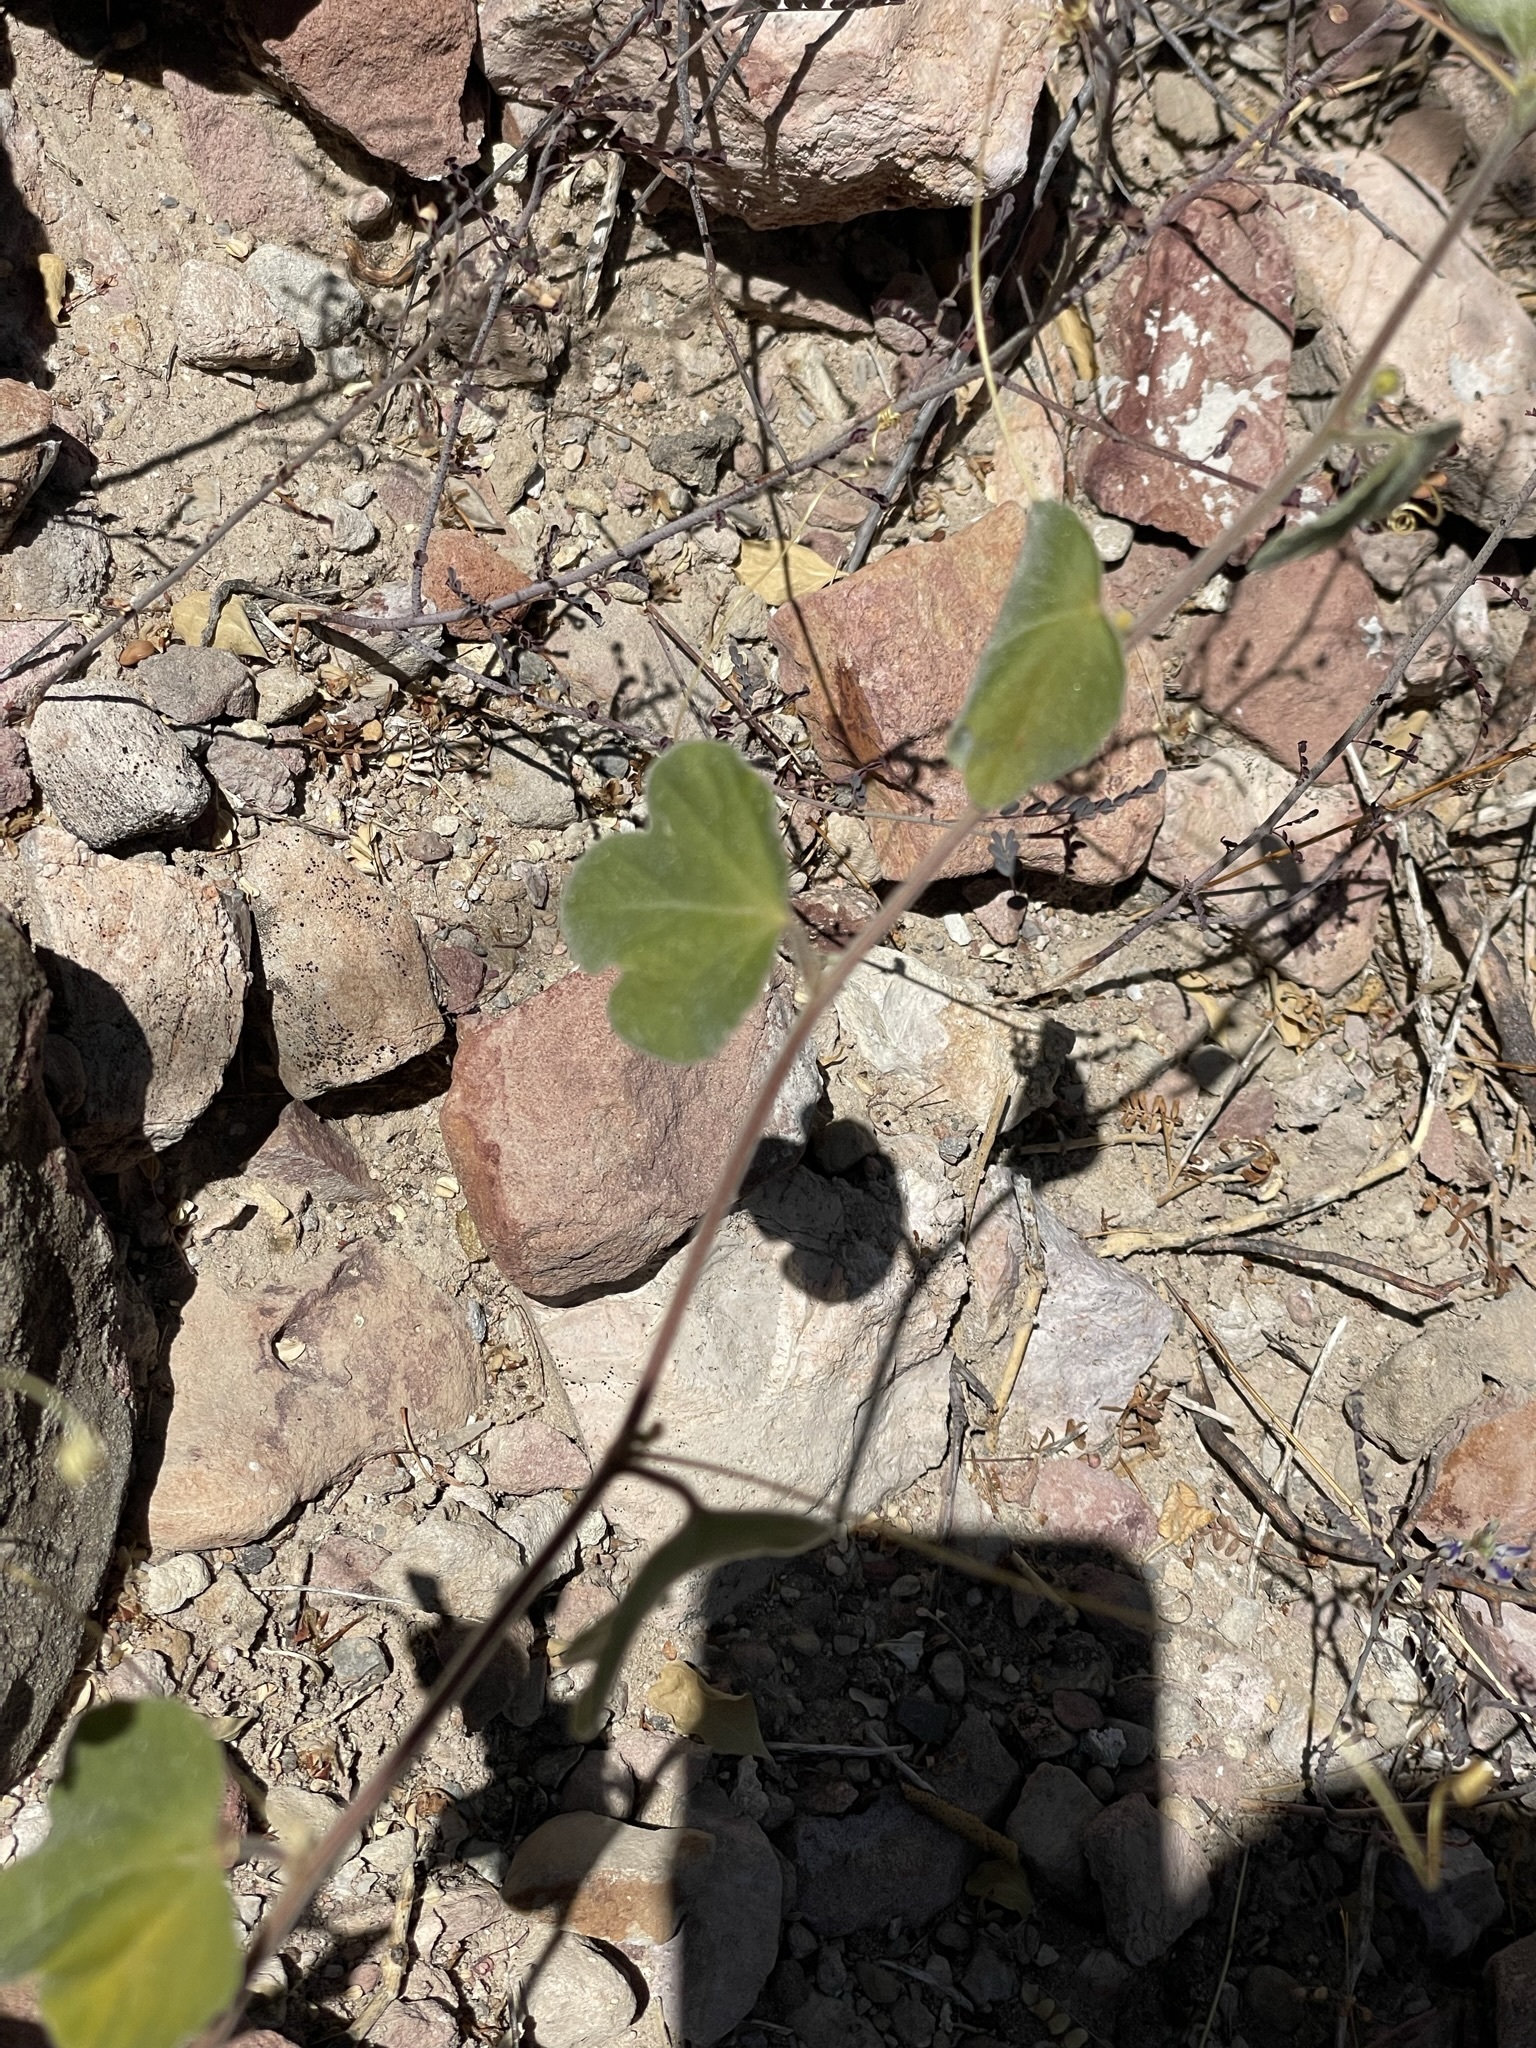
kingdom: Plantae
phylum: Tracheophyta
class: Magnoliopsida
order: Malpighiales
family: Passifloraceae
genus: Passiflora
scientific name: Passiflora arida
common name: Desert passionflower
